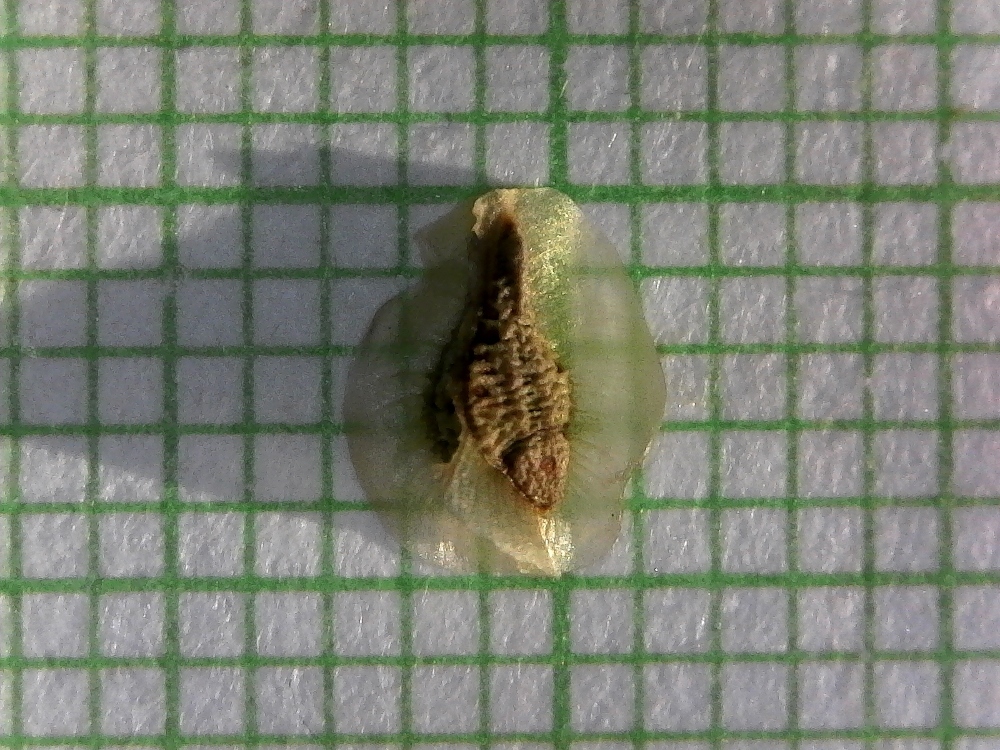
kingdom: Plantae
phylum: Tracheophyta
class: Magnoliopsida
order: Asterales
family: Asteraceae
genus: Osteospermum
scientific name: Osteospermum amplectens
